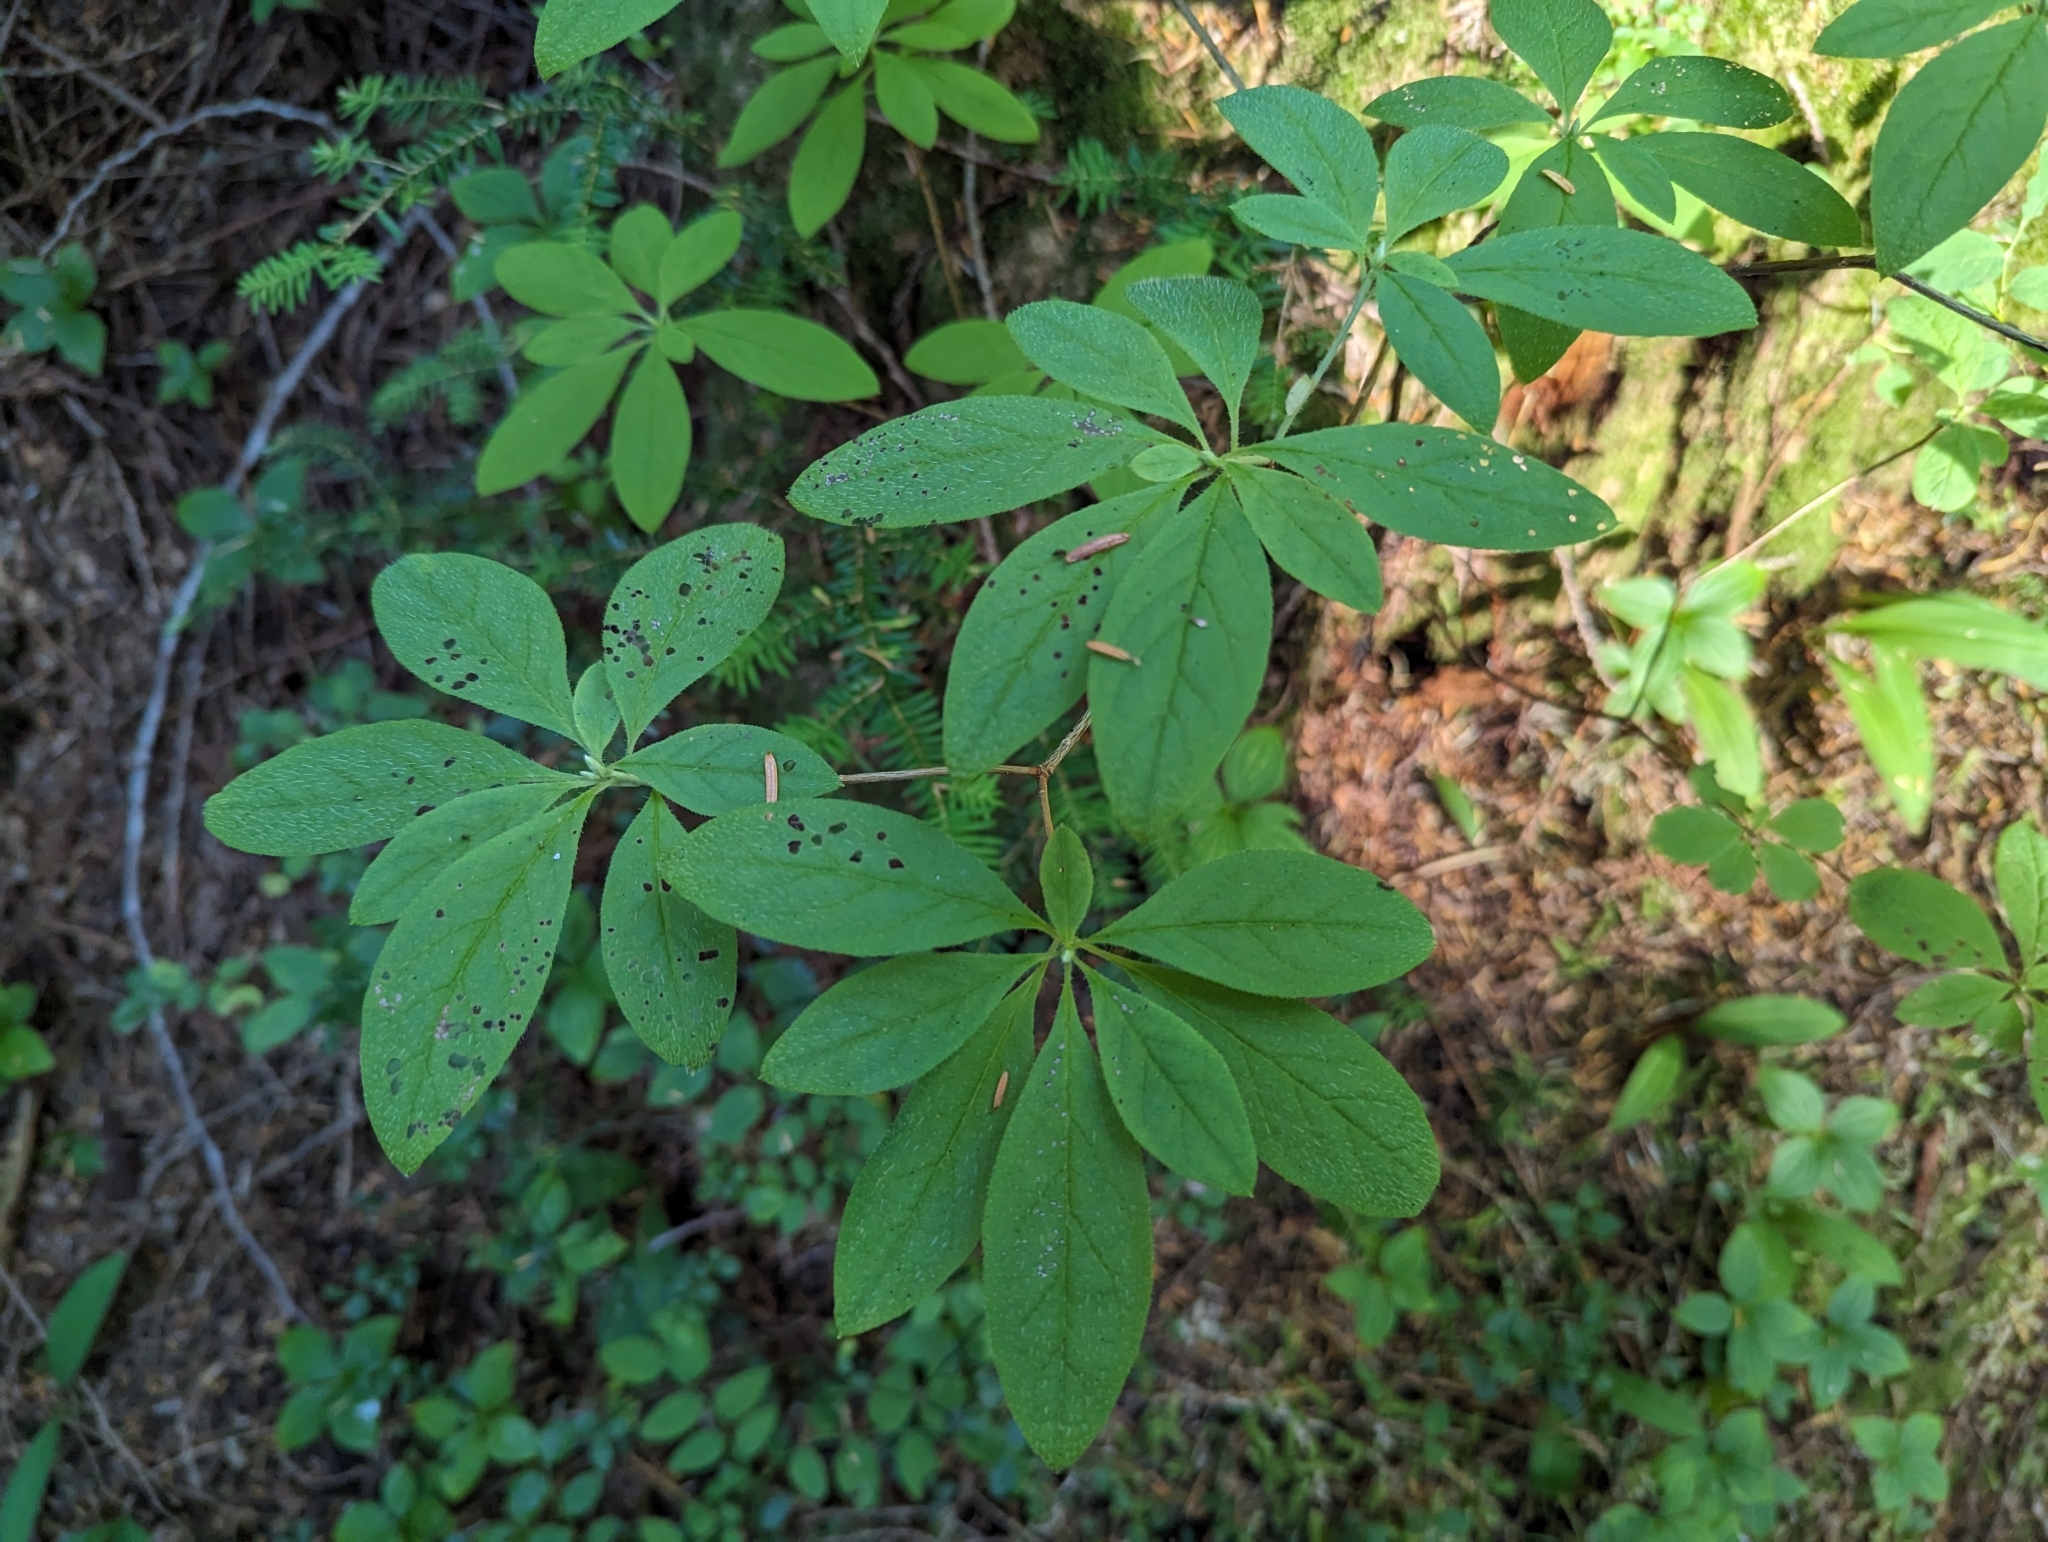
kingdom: Plantae
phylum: Tracheophyta
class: Magnoliopsida
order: Ericales
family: Ericaceae
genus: Rhododendron
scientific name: Rhododendron menziesii
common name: Pacific menziesia
